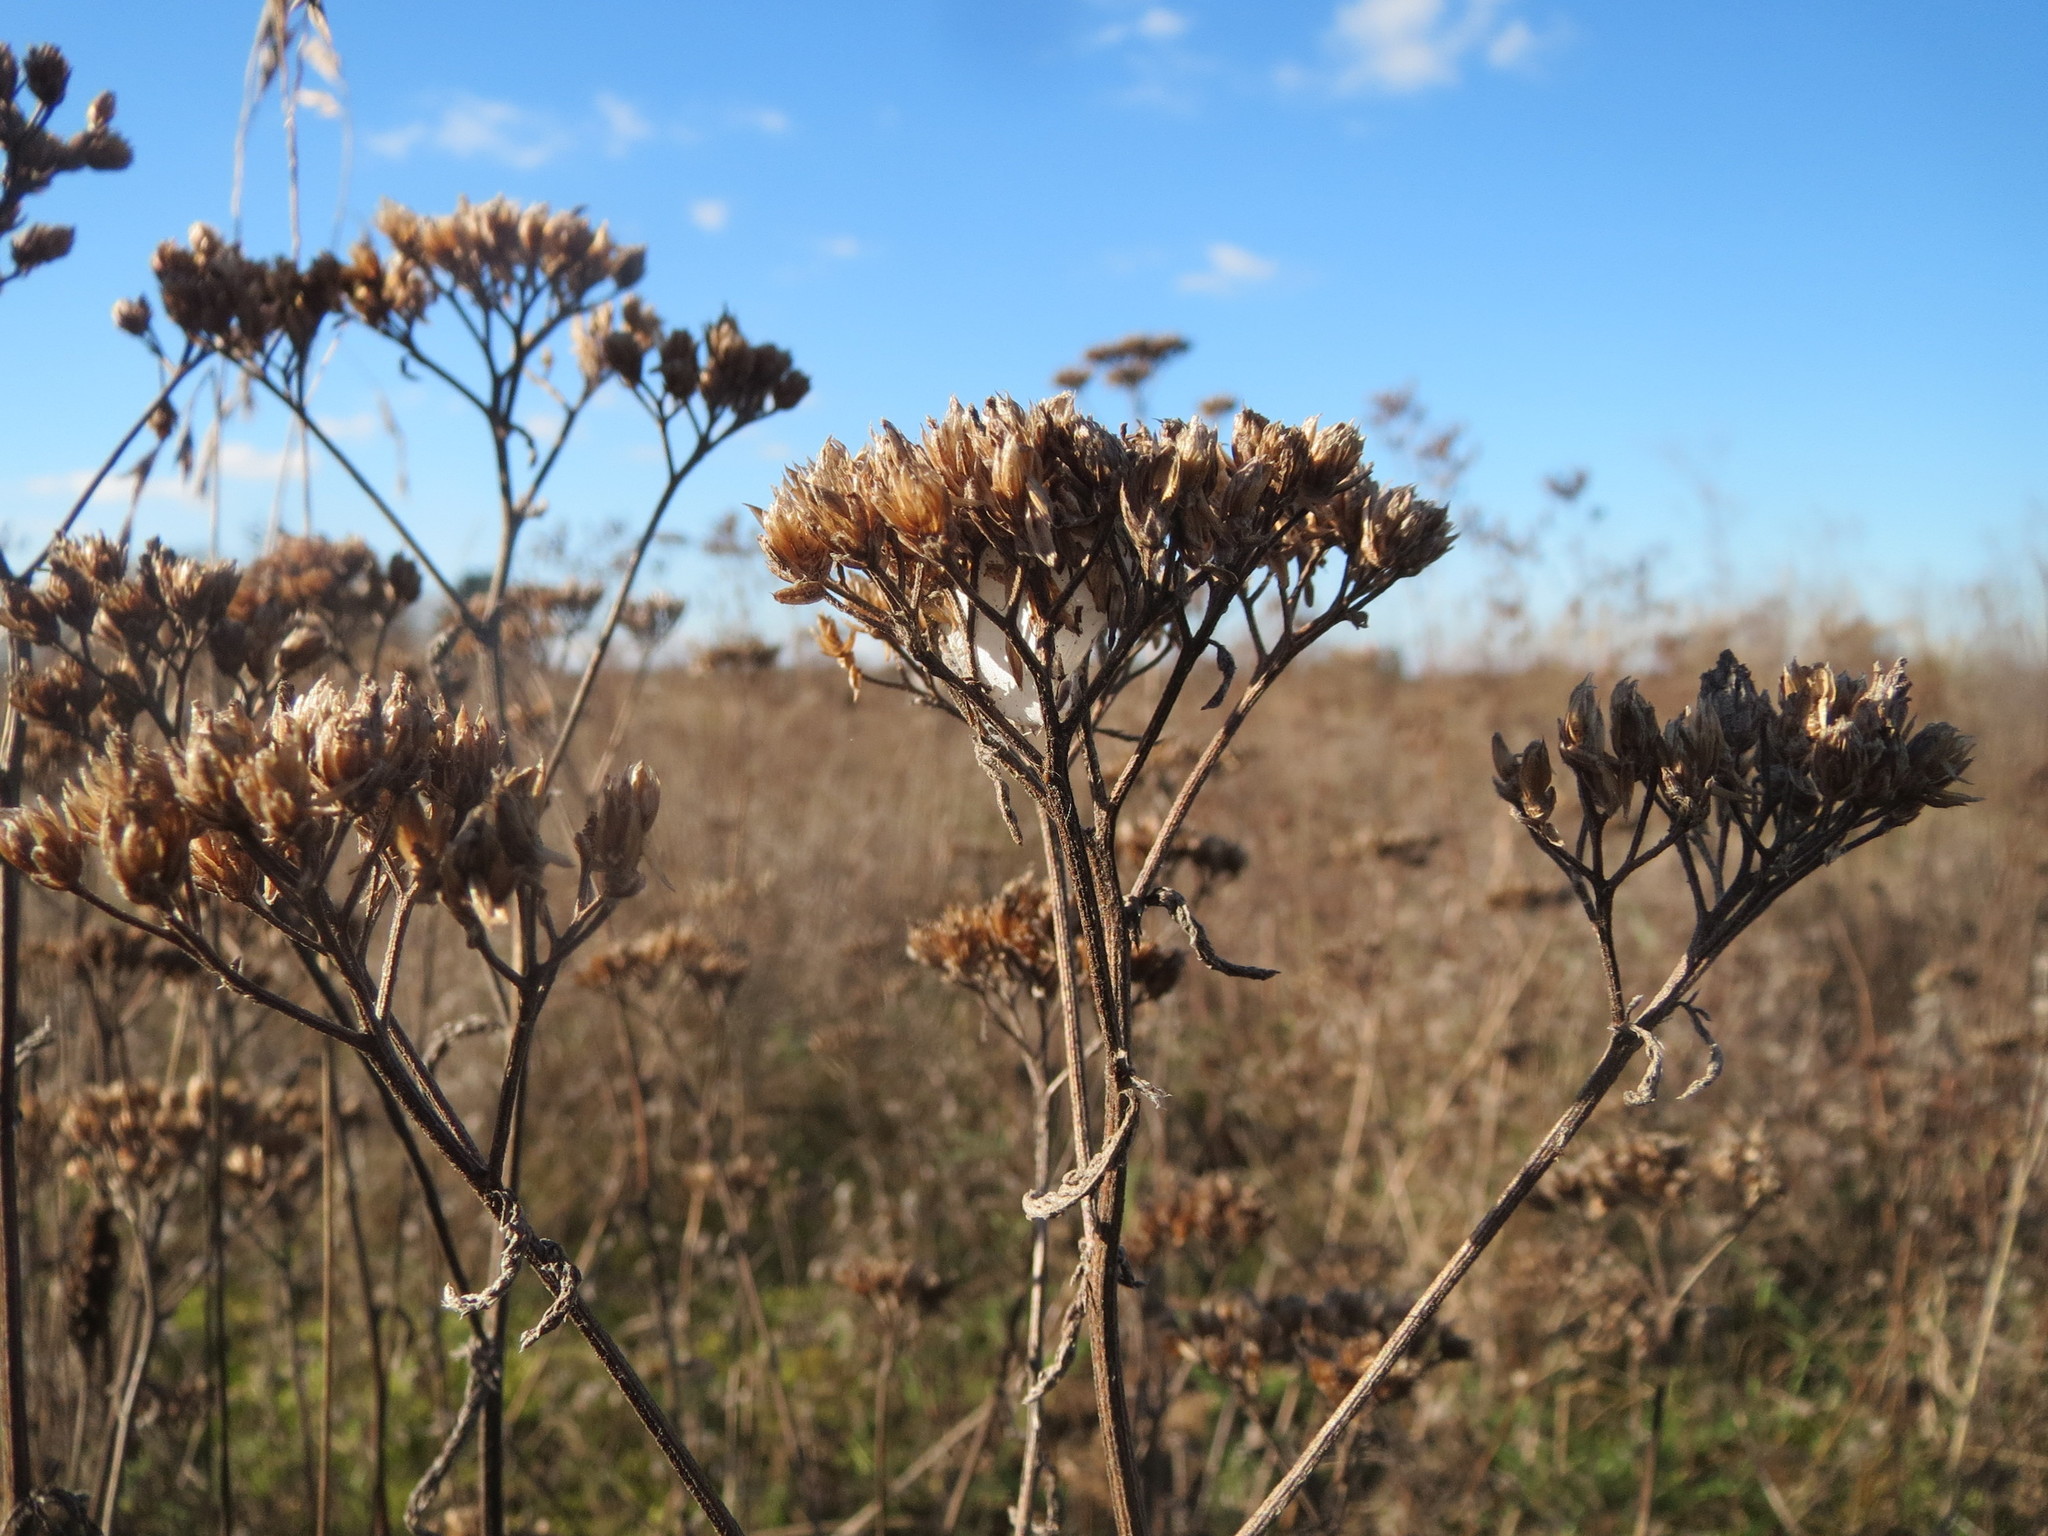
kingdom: Plantae
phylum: Tracheophyta
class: Magnoliopsida
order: Asterales
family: Asteraceae
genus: Achillea
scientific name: Achillea millefolium
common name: Yarrow
